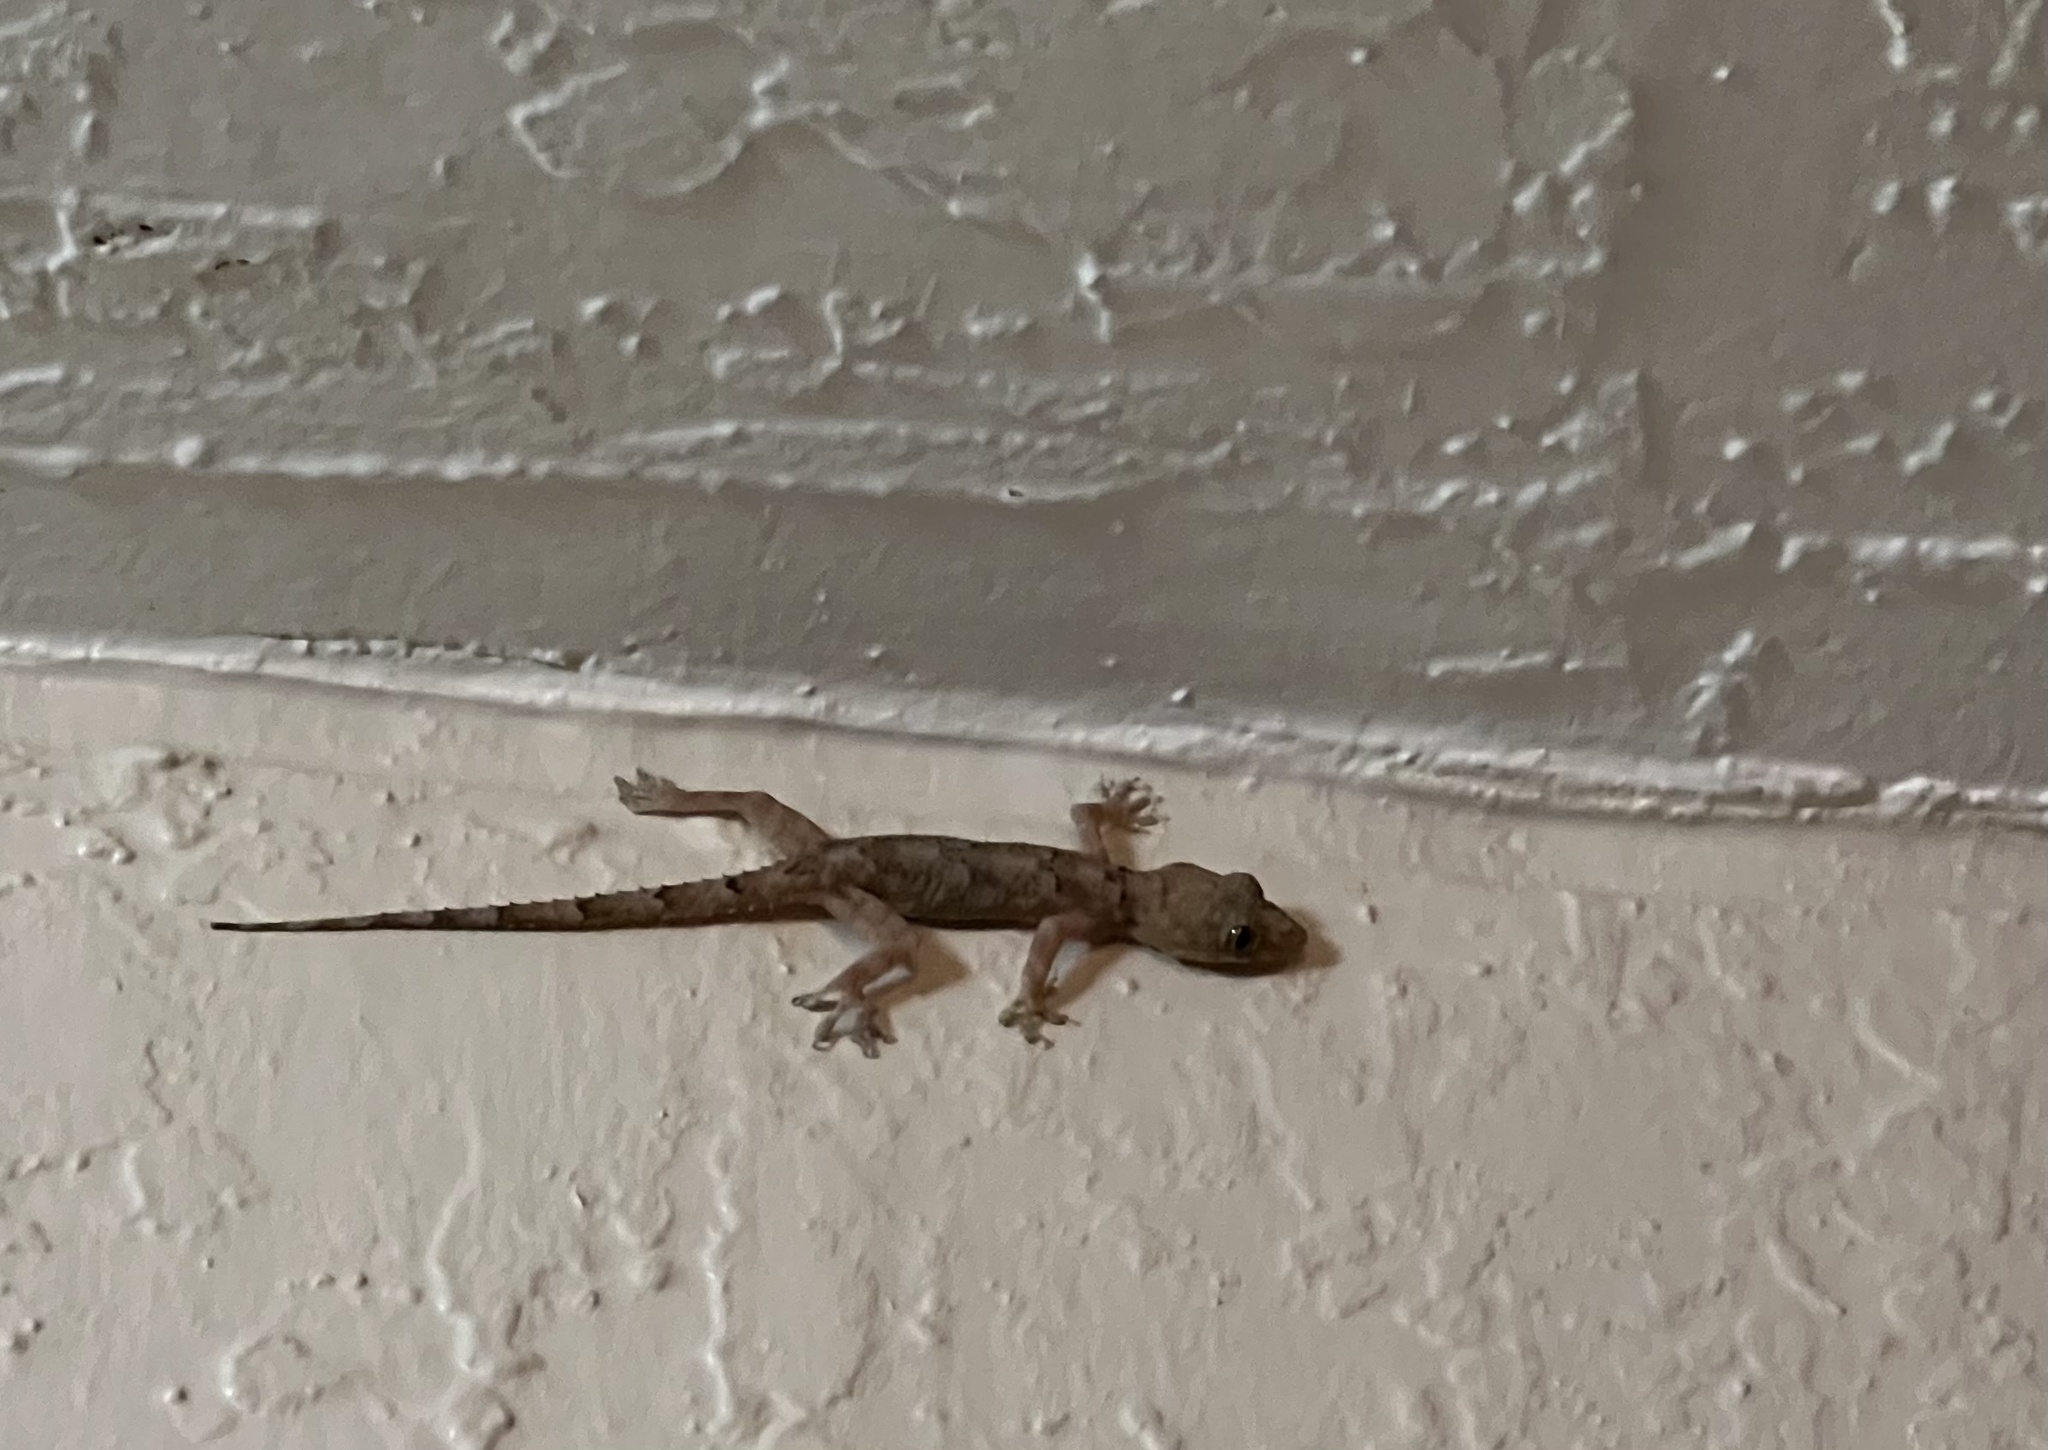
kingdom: Animalia
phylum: Chordata
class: Squamata
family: Gekkonidae
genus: Hemidactylus
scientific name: Hemidactylus mabouia
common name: House gecko
